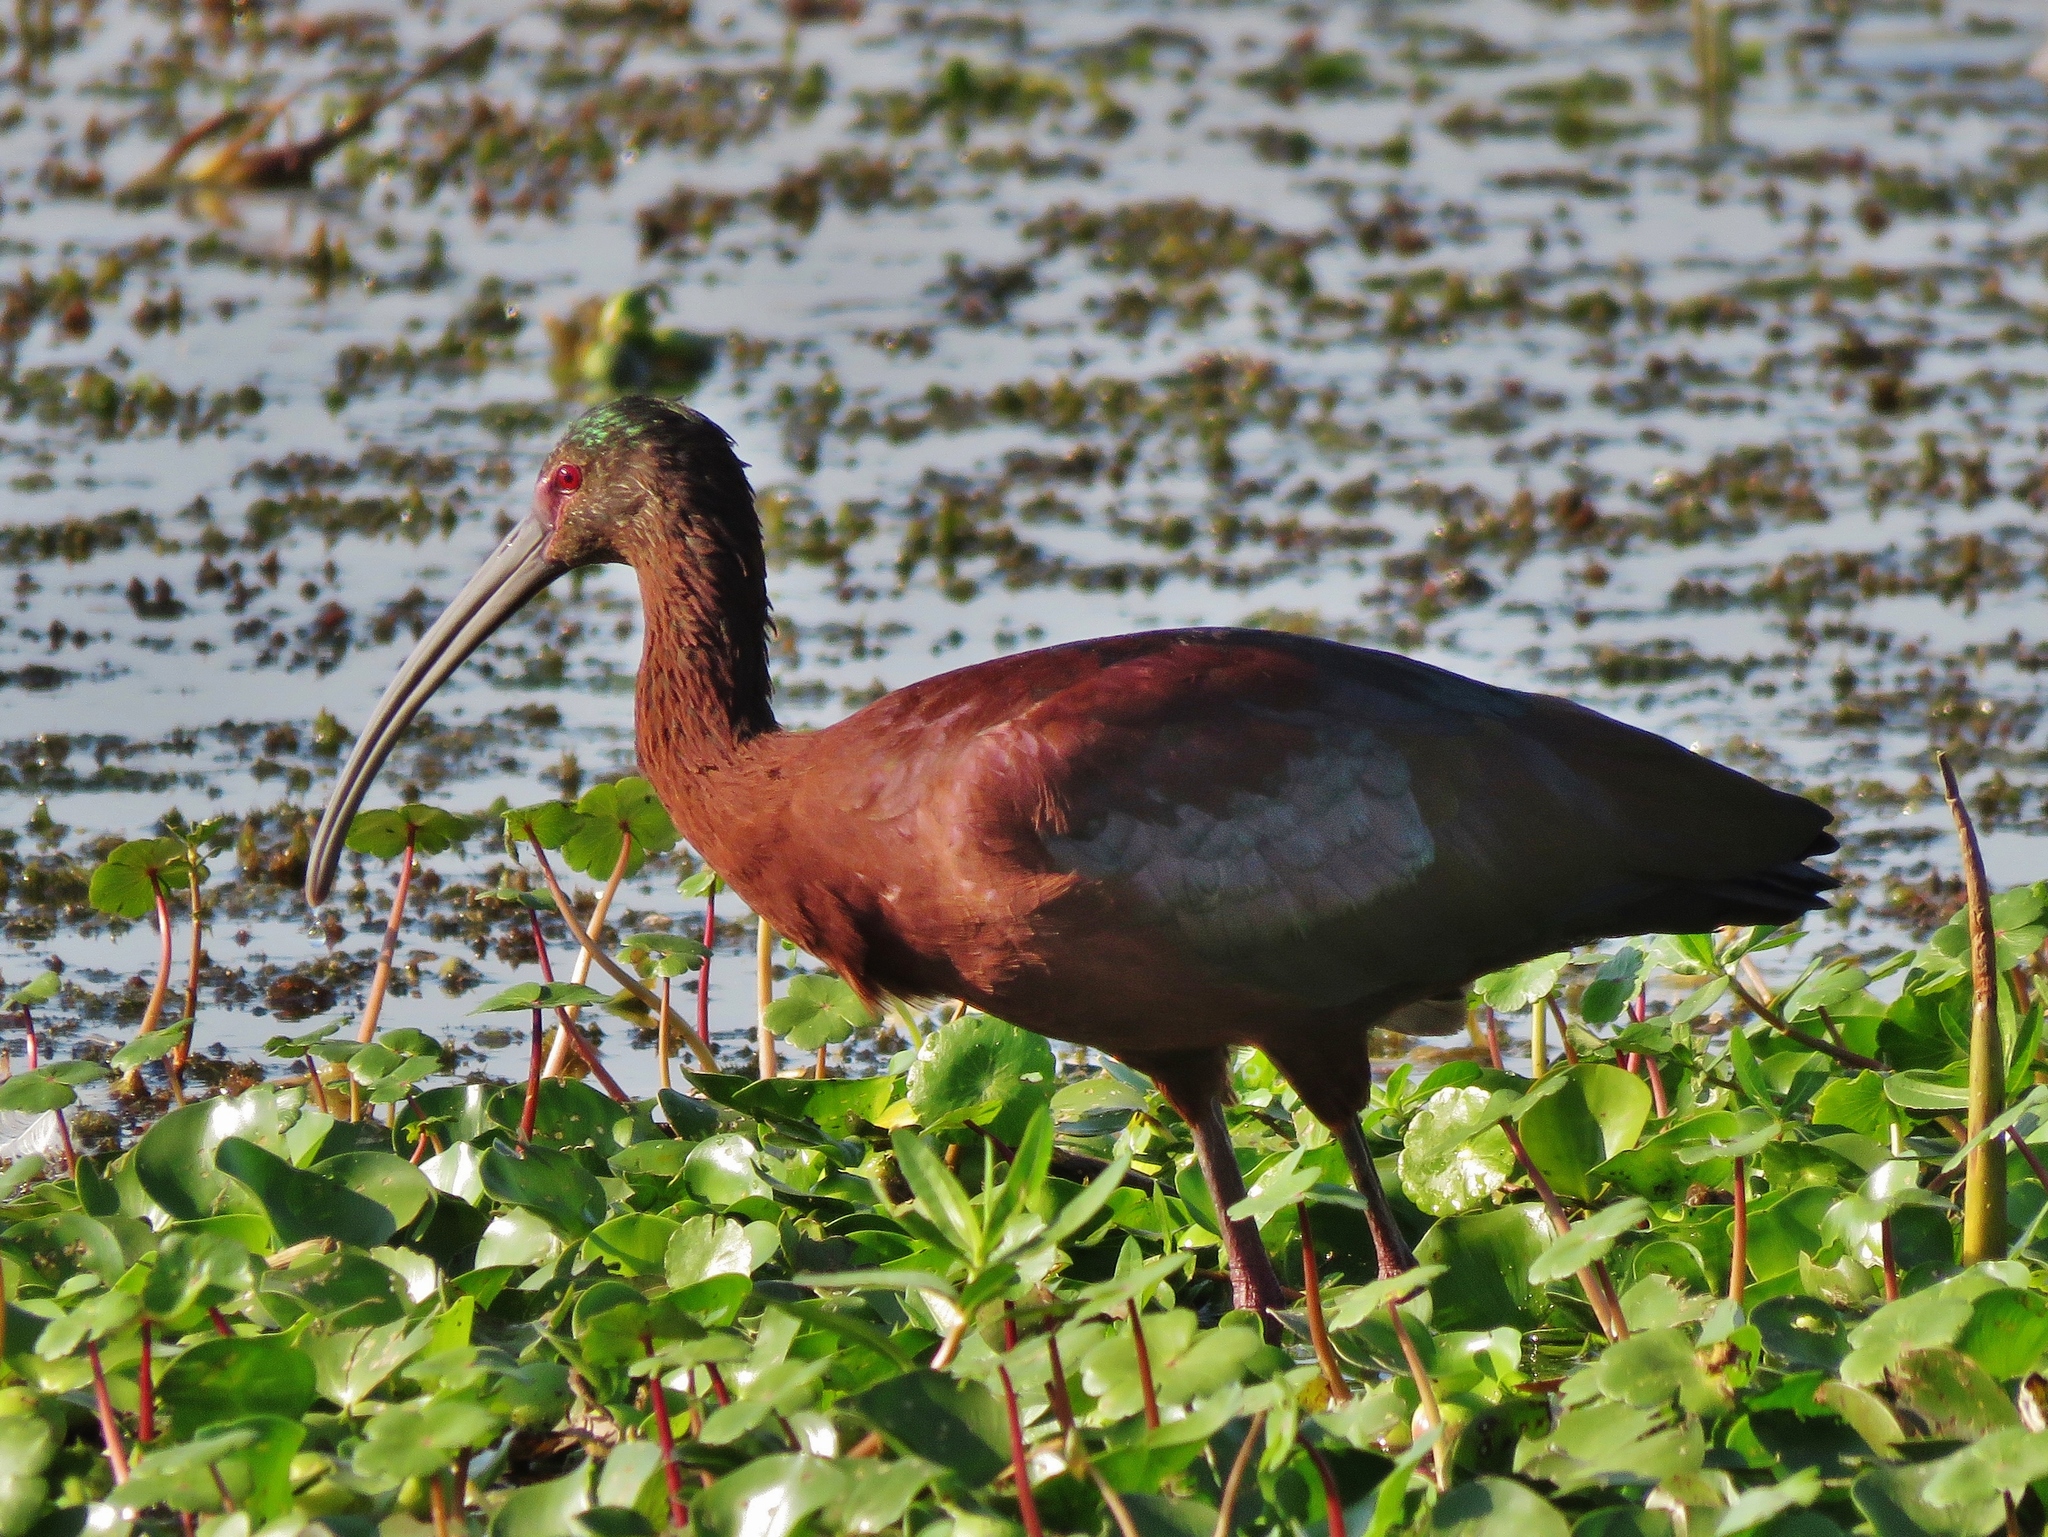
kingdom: Animalia
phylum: Chordata
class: Aves
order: Pelecaniformes
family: Threskiornithidae
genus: Plegadis
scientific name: Plegadis chihi
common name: White-faced ibis
